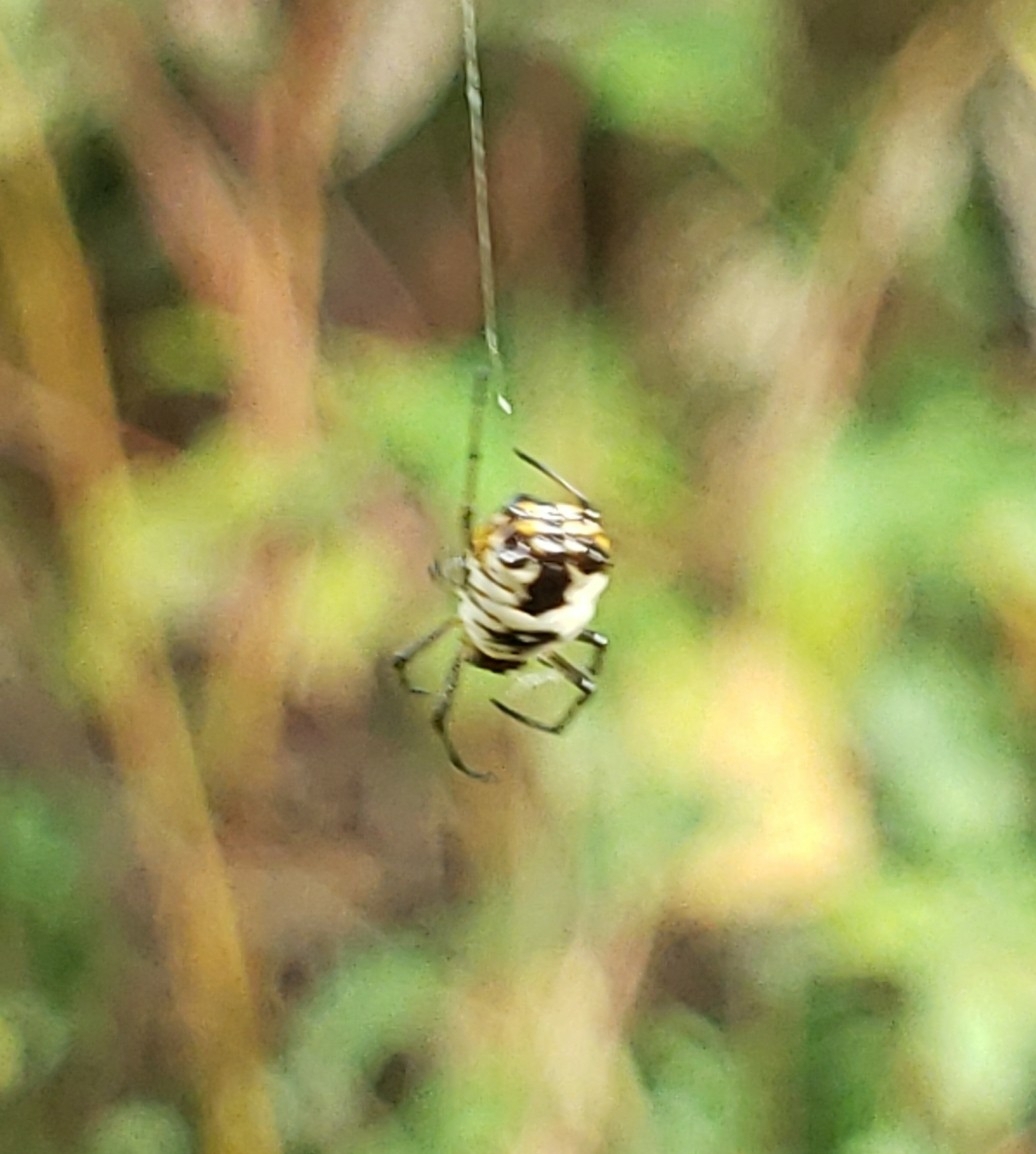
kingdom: Animalia
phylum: Arthropoda
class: Arachnida
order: Araneae
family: Araneidae
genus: Micrathena
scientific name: Micrathena mitrata
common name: Orb weavers
